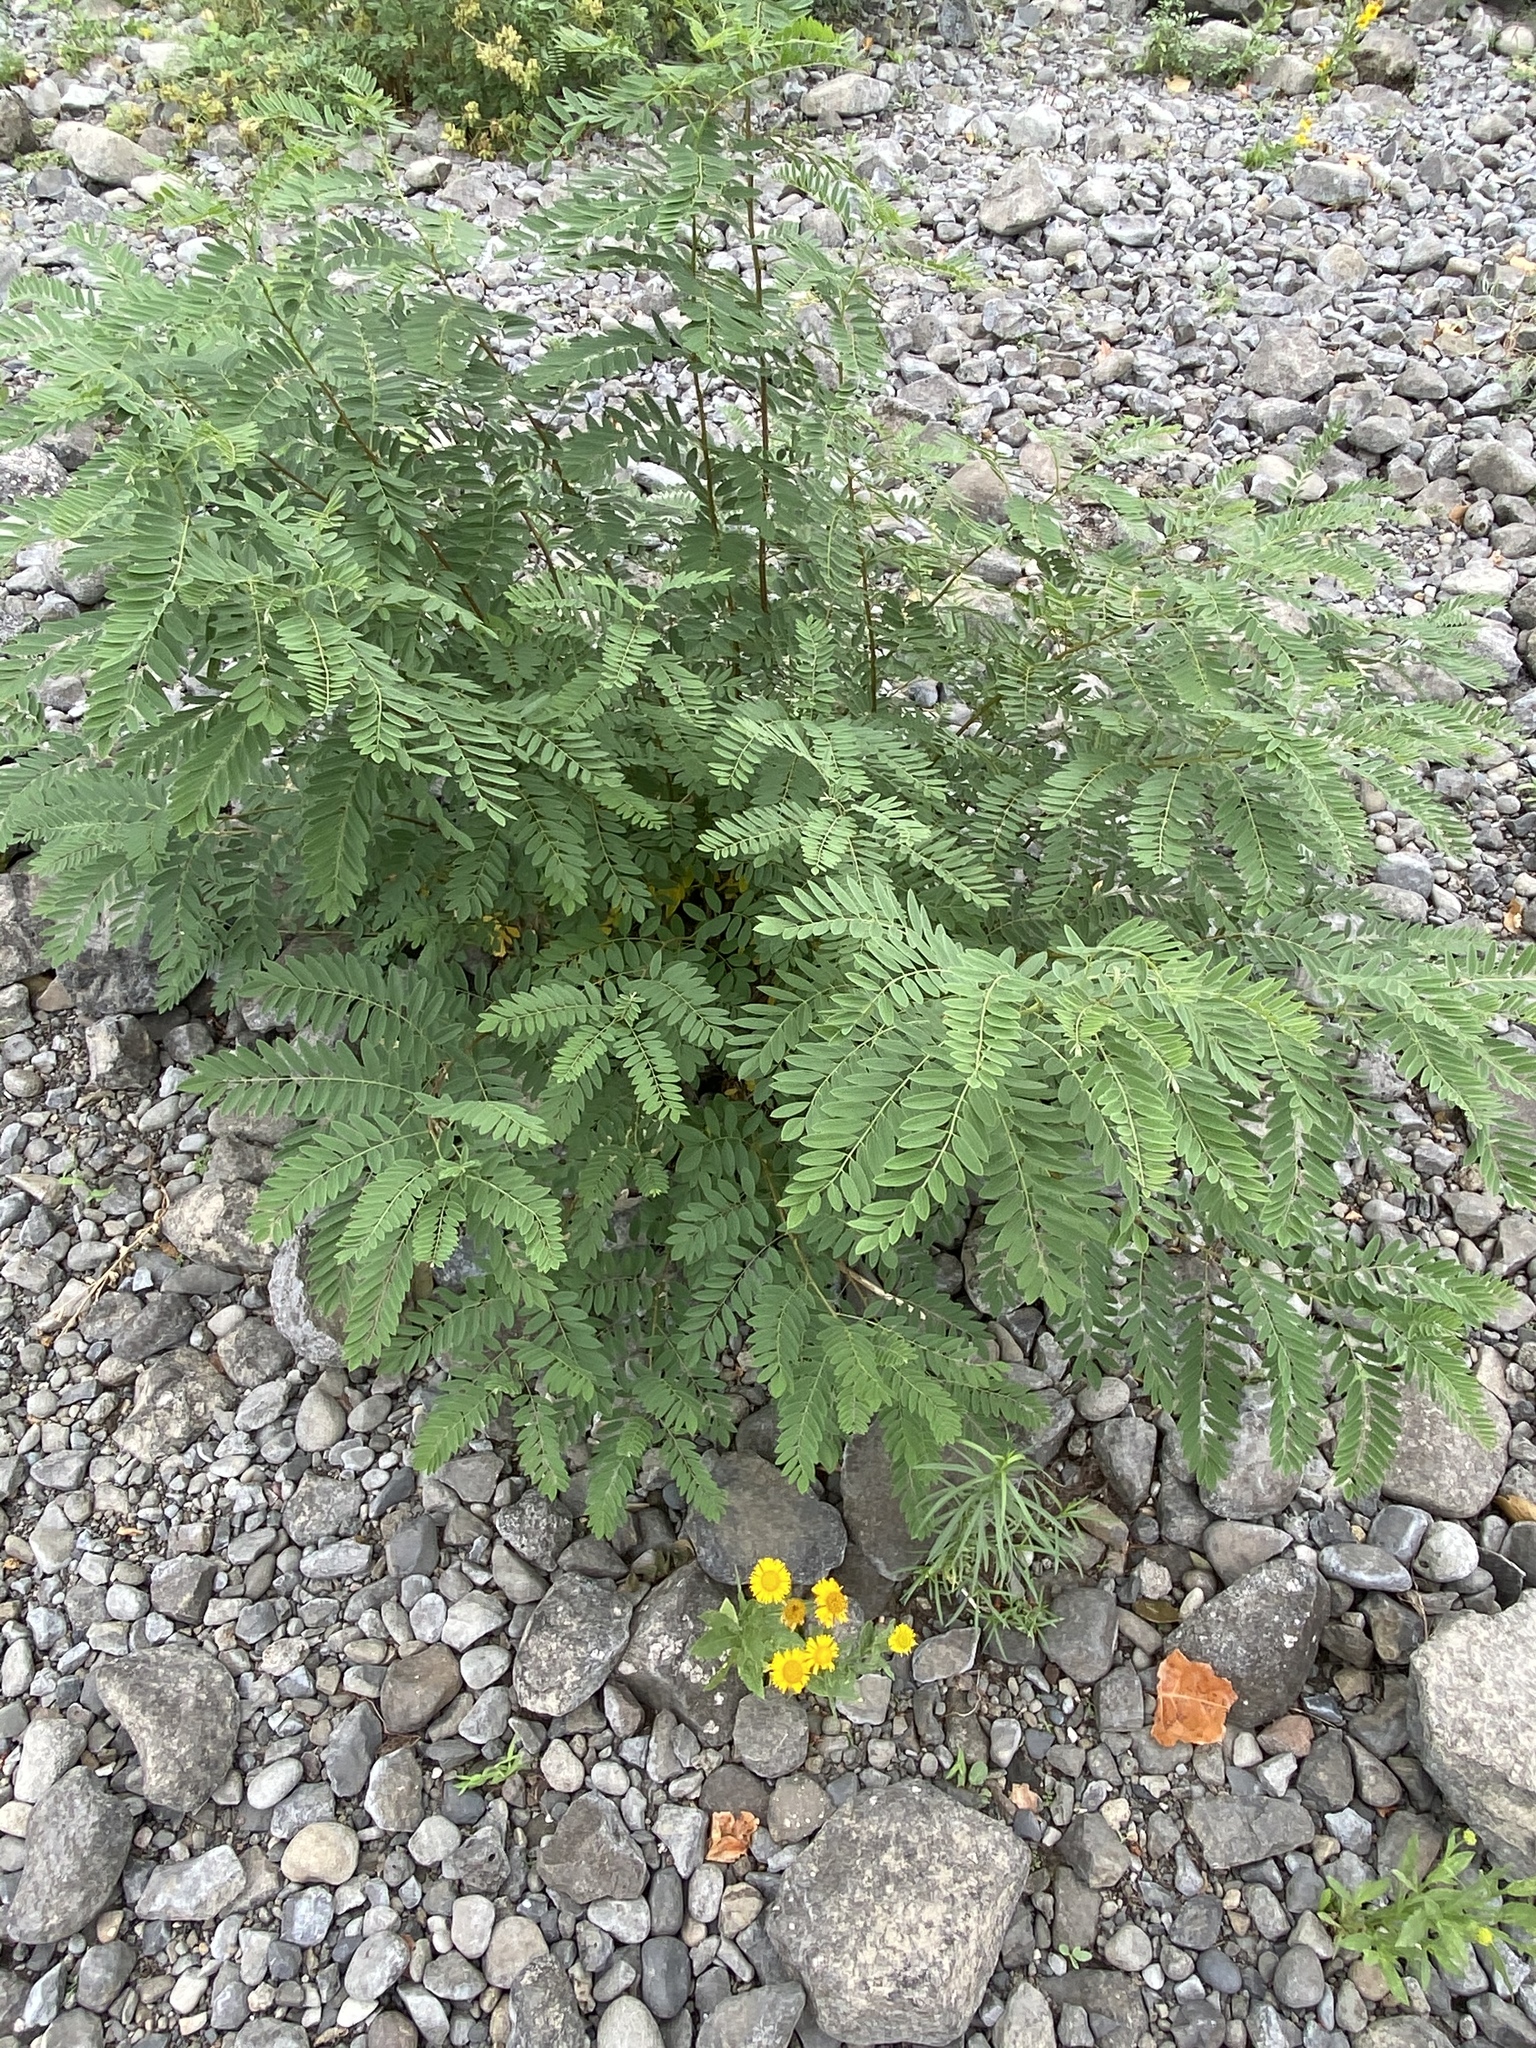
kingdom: Plantae
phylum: Tracheophyta
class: Magnoliopsida
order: Fabales
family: Fabaceae
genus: Amorpha
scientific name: Amorpha fruticosa
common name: False indigo
